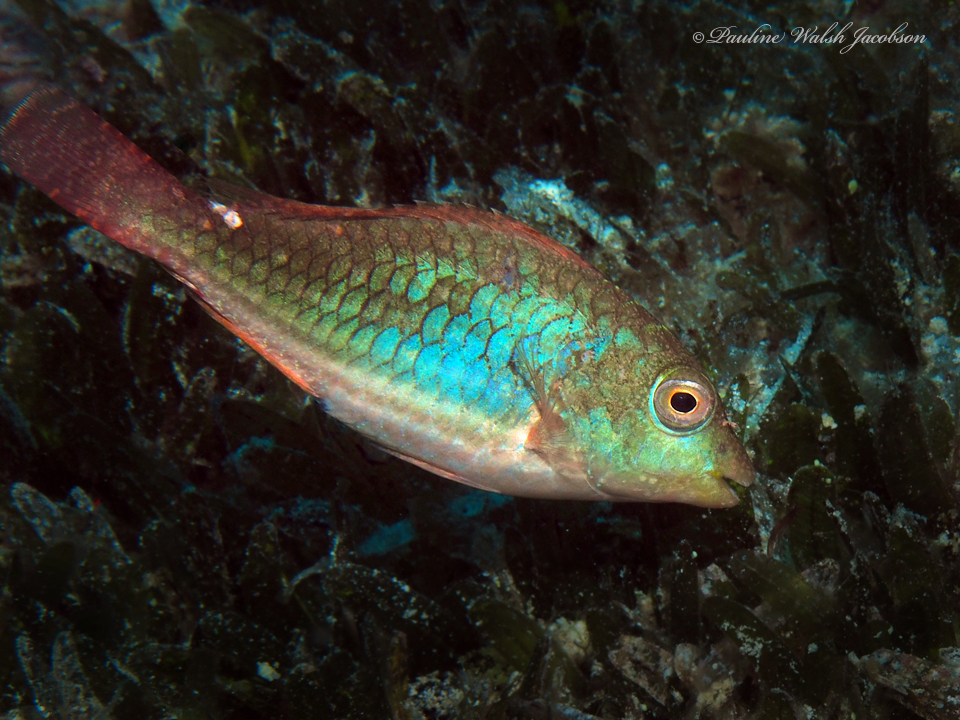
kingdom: Animalia
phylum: Chordata
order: Perciformes
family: Scaridae
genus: Sparisoma
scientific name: Sparisoma aurofrenatum
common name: Redband parrotfish
